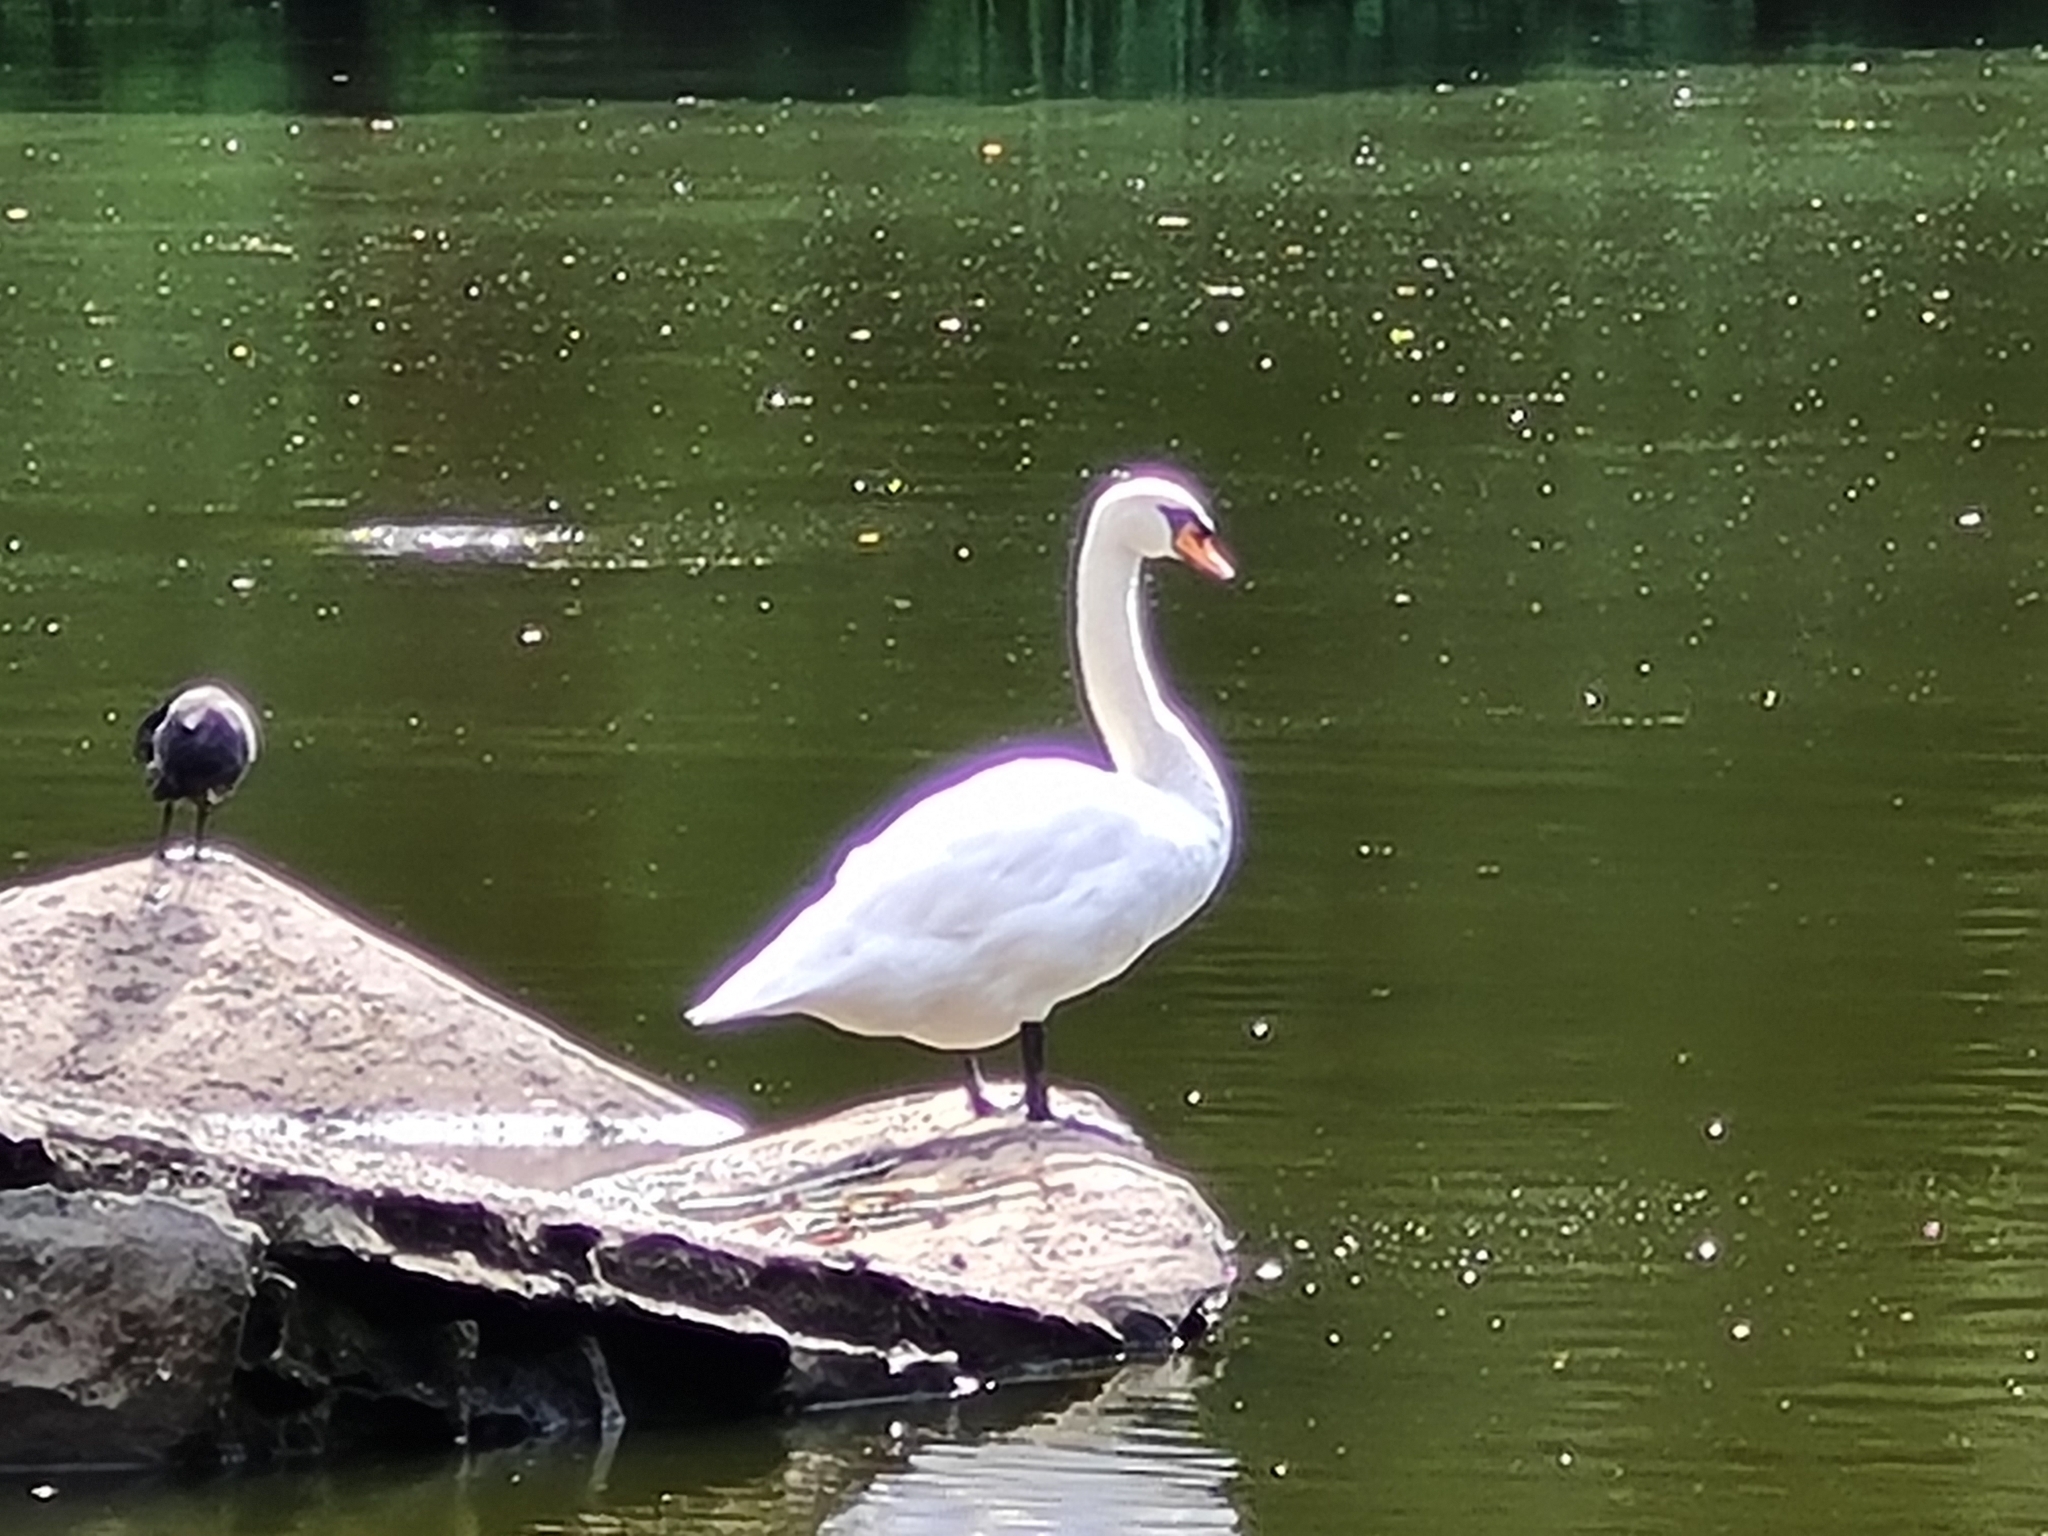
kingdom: Animalia
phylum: Chordata
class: Aves
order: Anseriformes
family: Anatidae
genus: Cygnus
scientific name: Cygnus olor
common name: Mute swan
